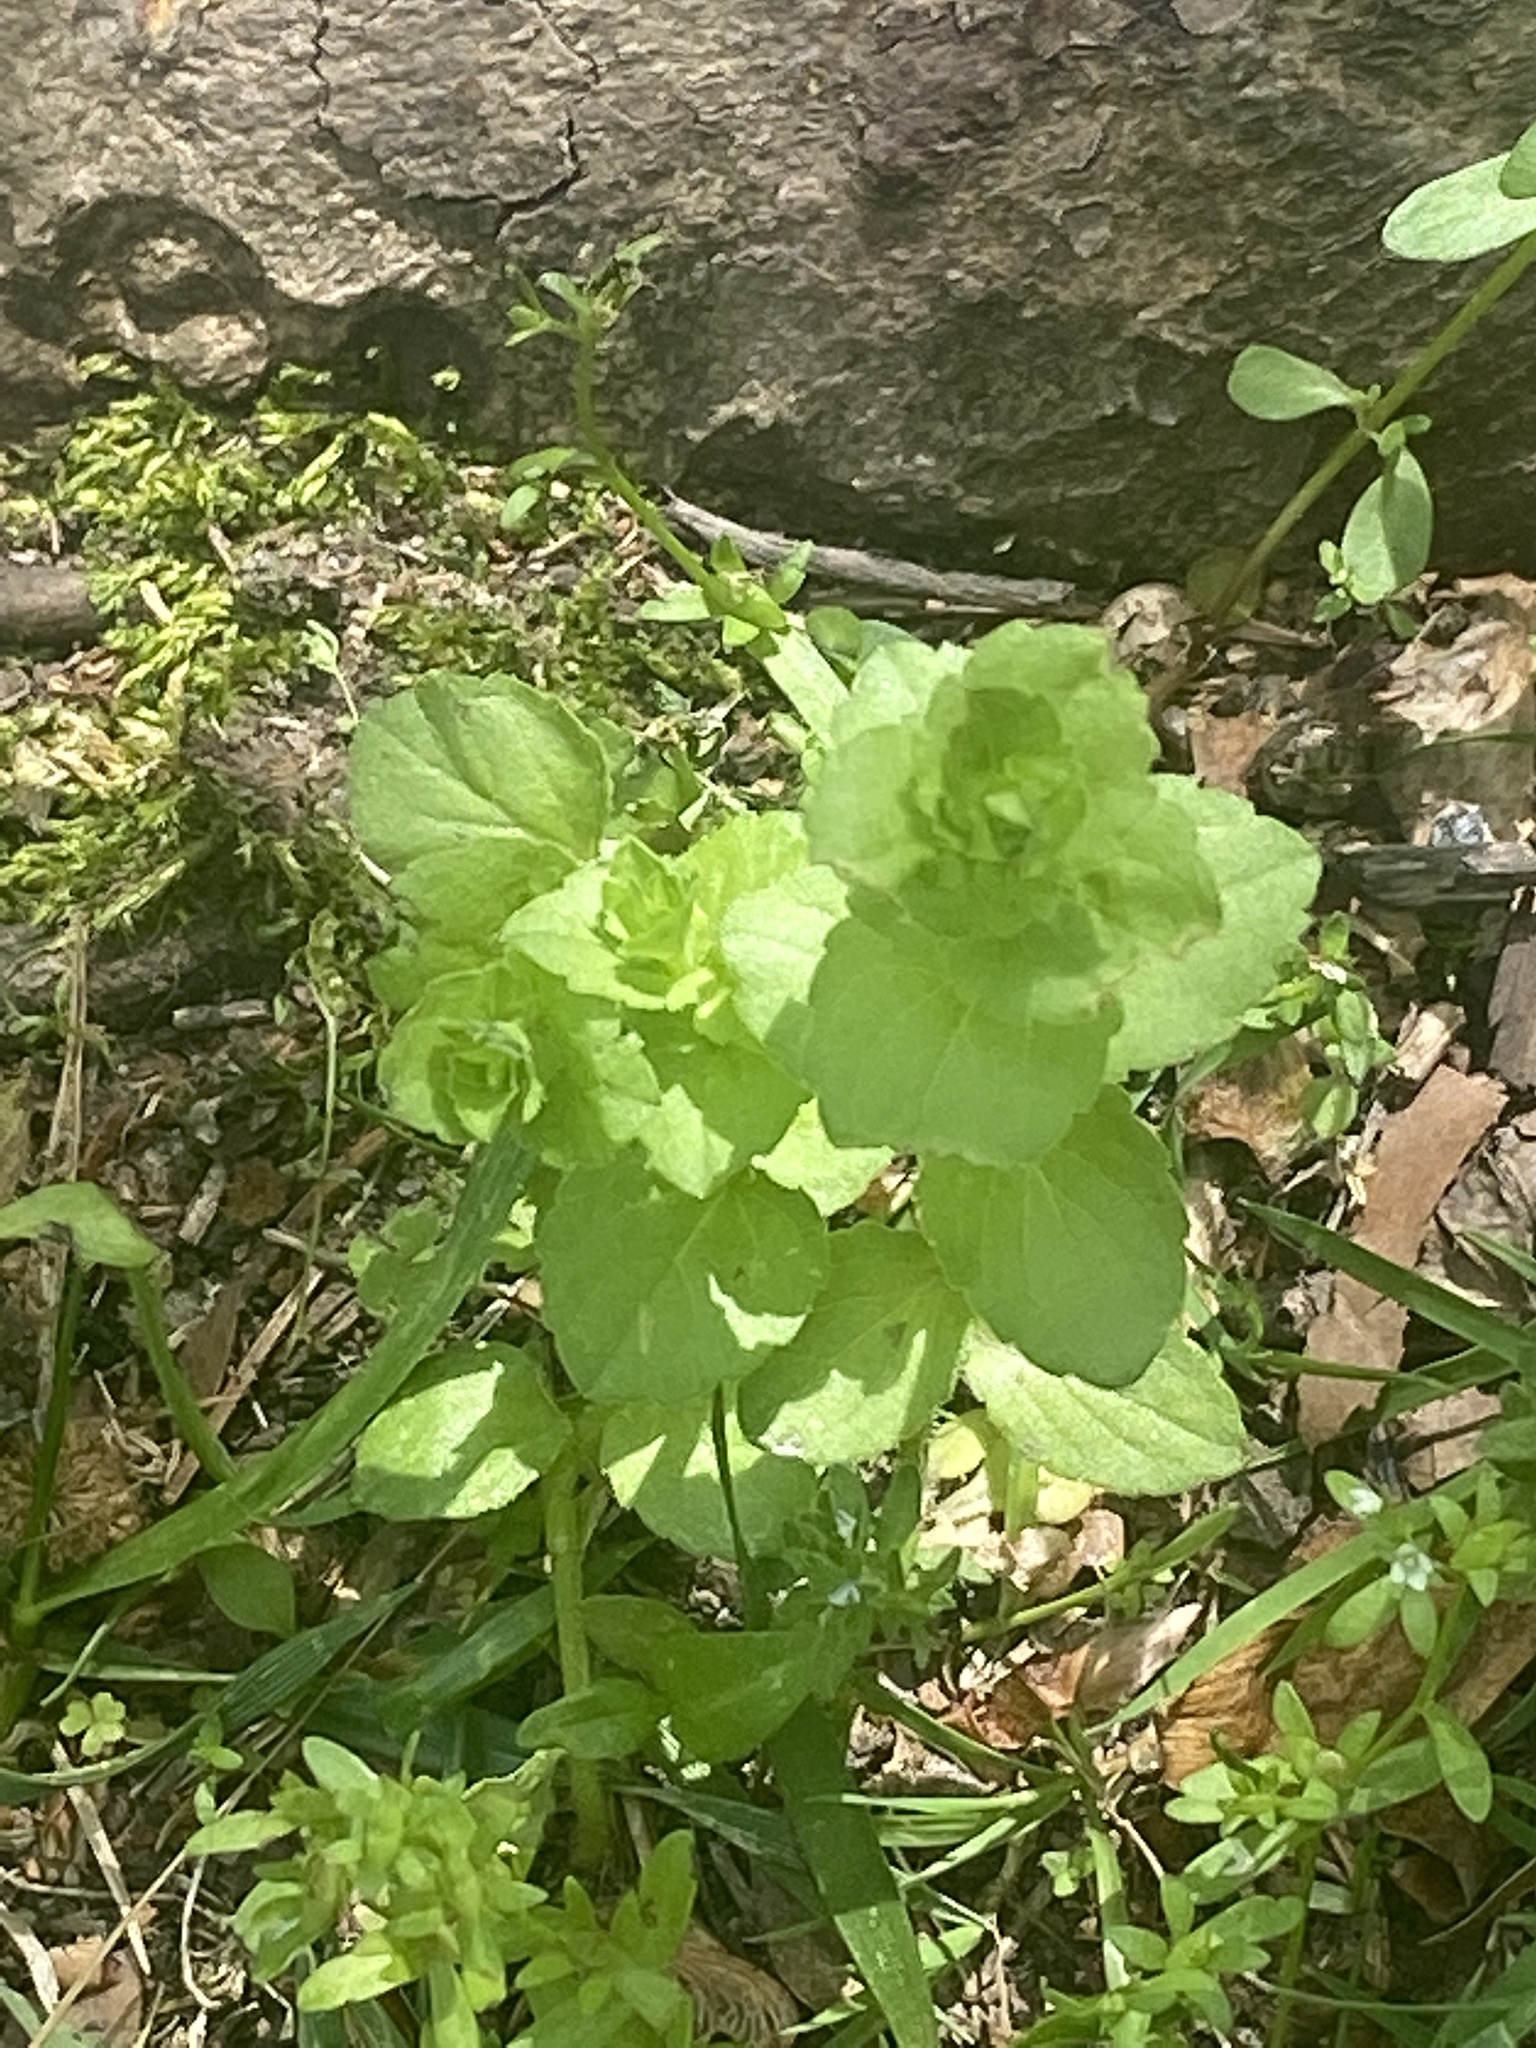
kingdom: Plantae
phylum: Tracheophyta
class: Magnoliopsida
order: Asterales
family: Campanulaceae
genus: Triodanis
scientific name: Triodanis perfoliata
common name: Clasping venus' looking-glass
